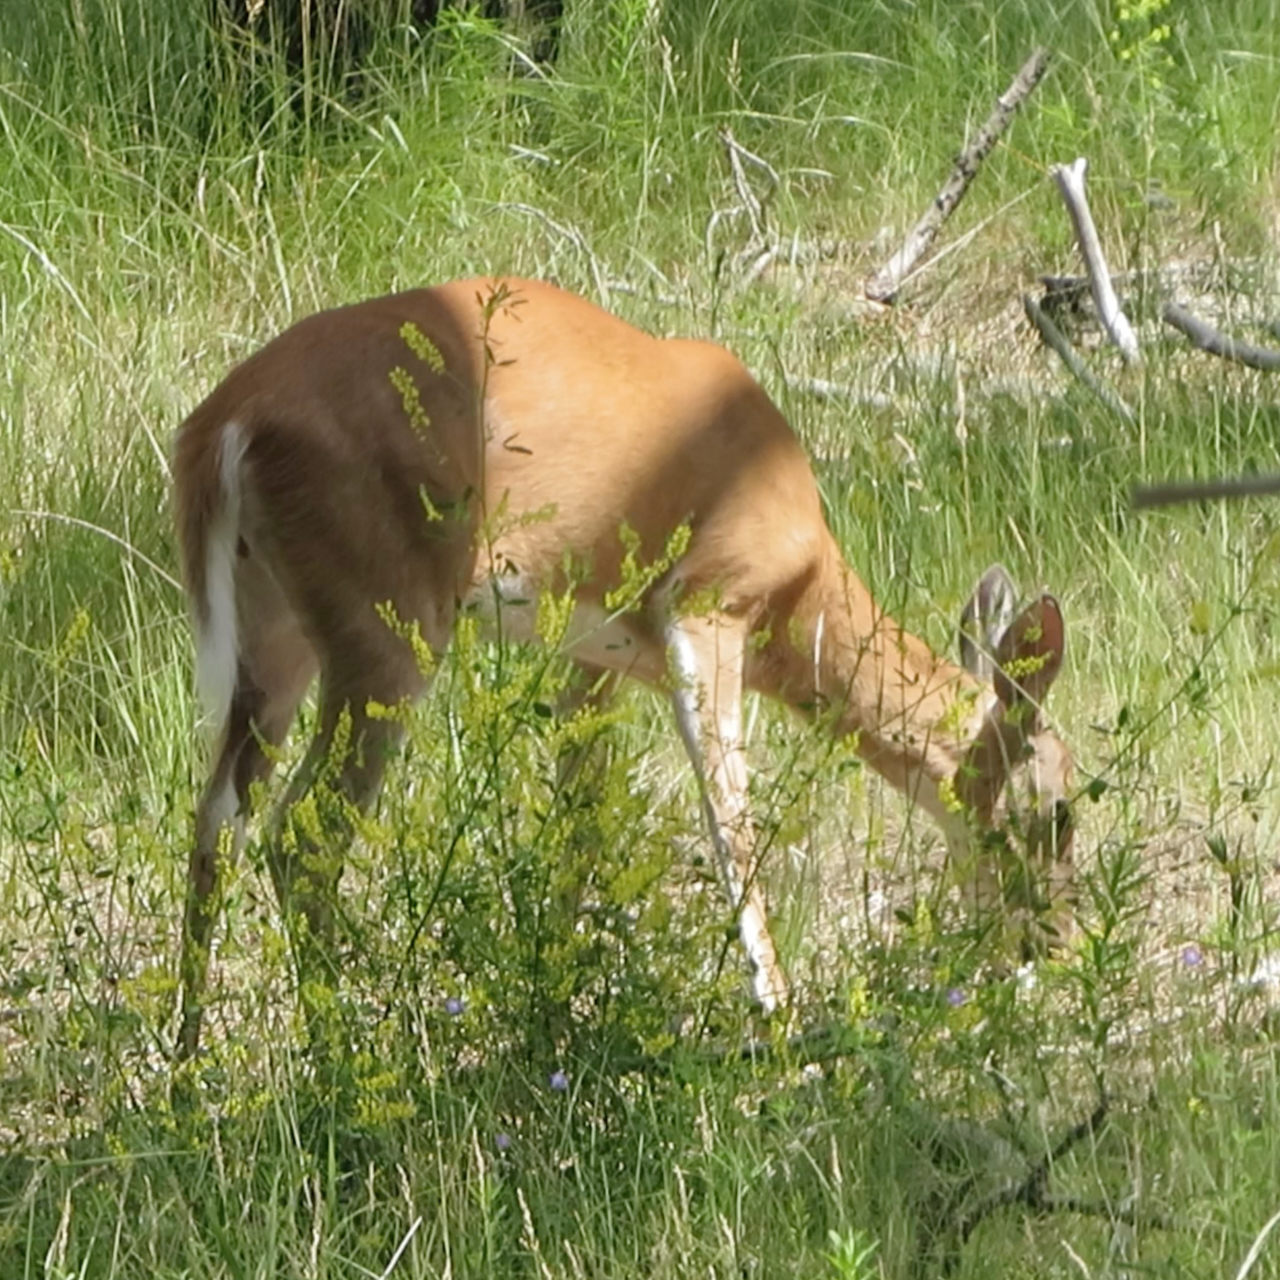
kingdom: Animalia
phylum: Chordata
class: Mammalia
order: Artiodactyla
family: Cervidae
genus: Odocoileus
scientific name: Odocoileus virginianus
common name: White-tailed deer
